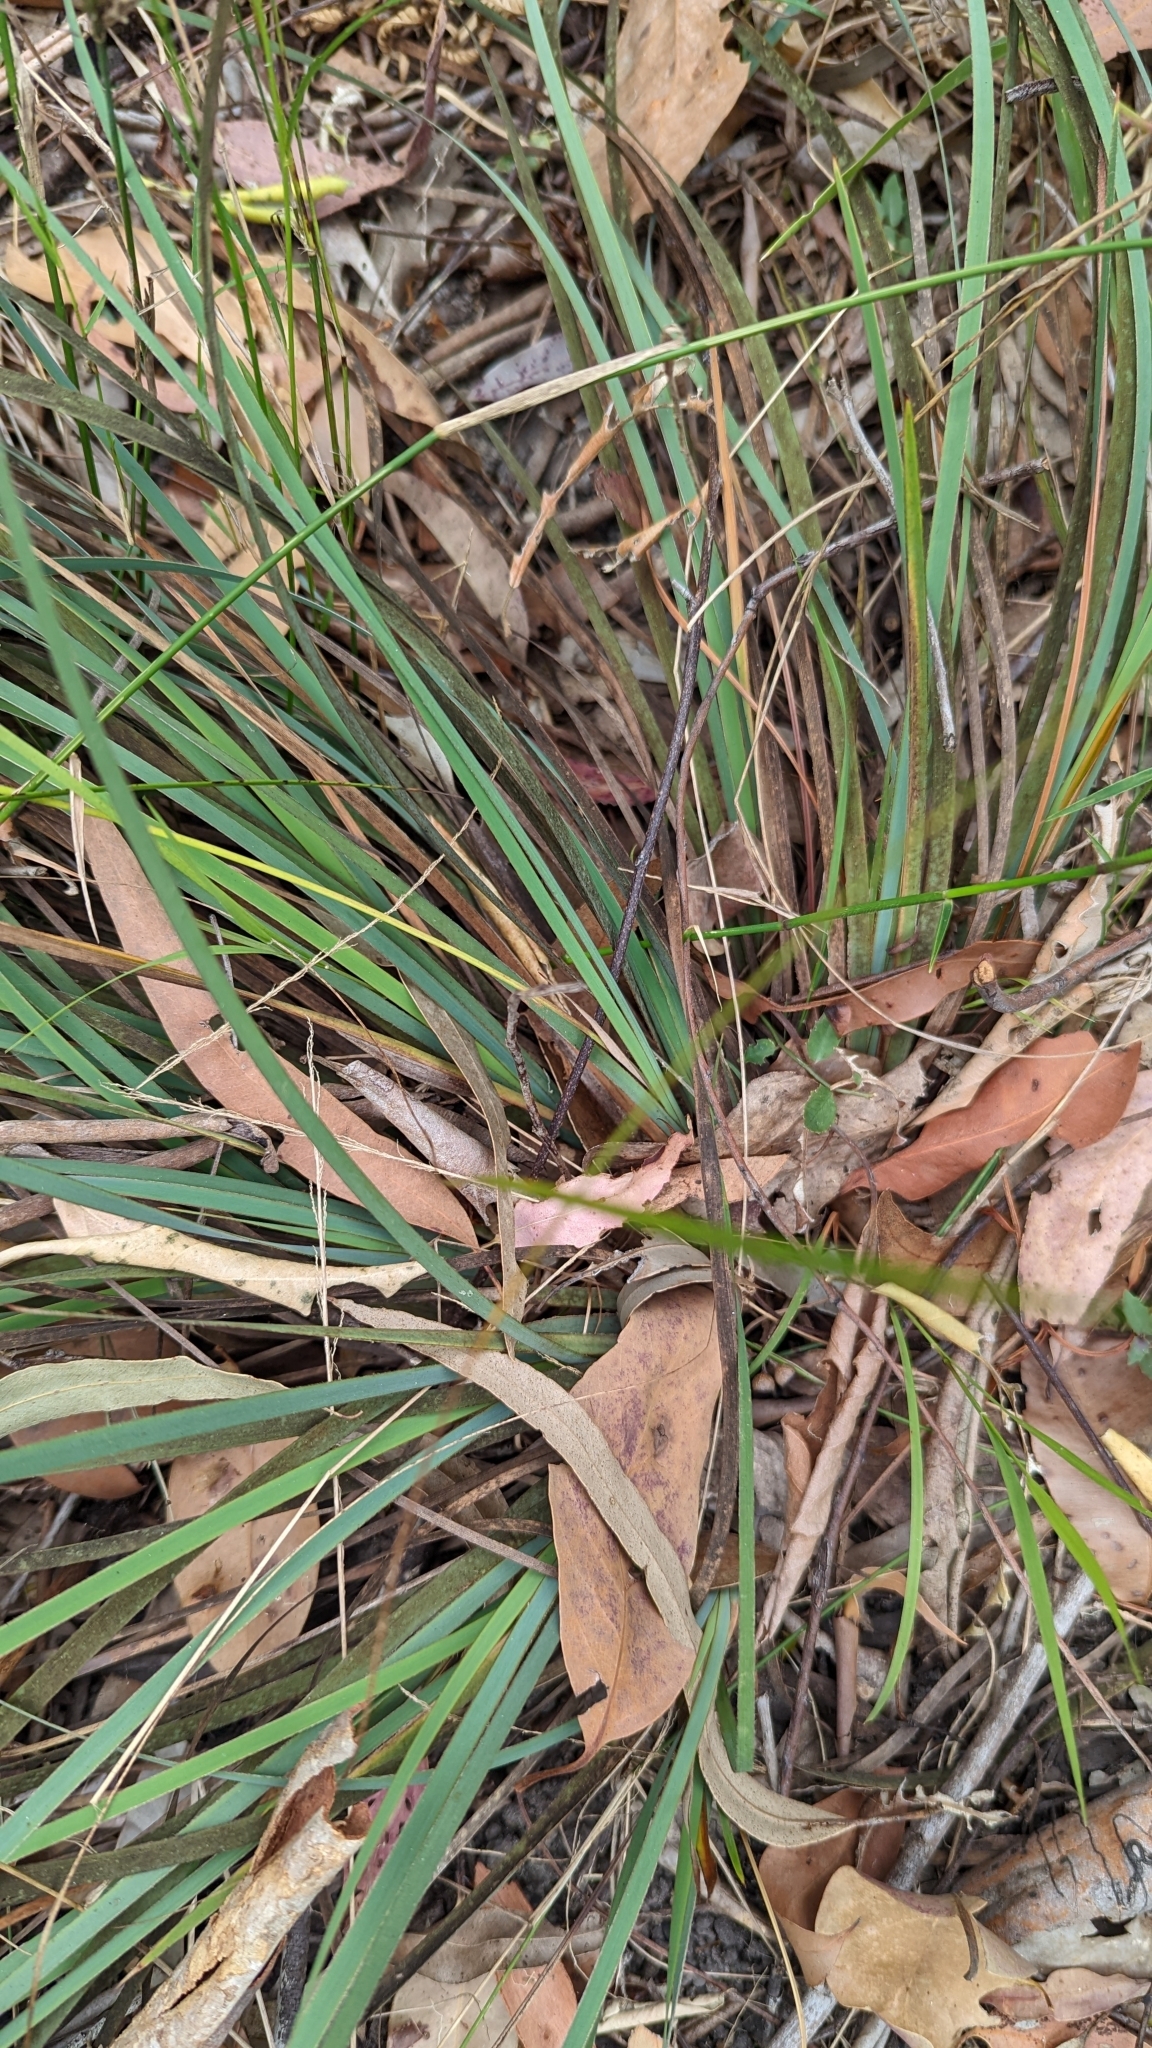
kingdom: Plantae
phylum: Tracheophyta
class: Liliopsida
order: Asparagales
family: Iridaceae
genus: Patersonia
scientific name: Patersonia sericea
